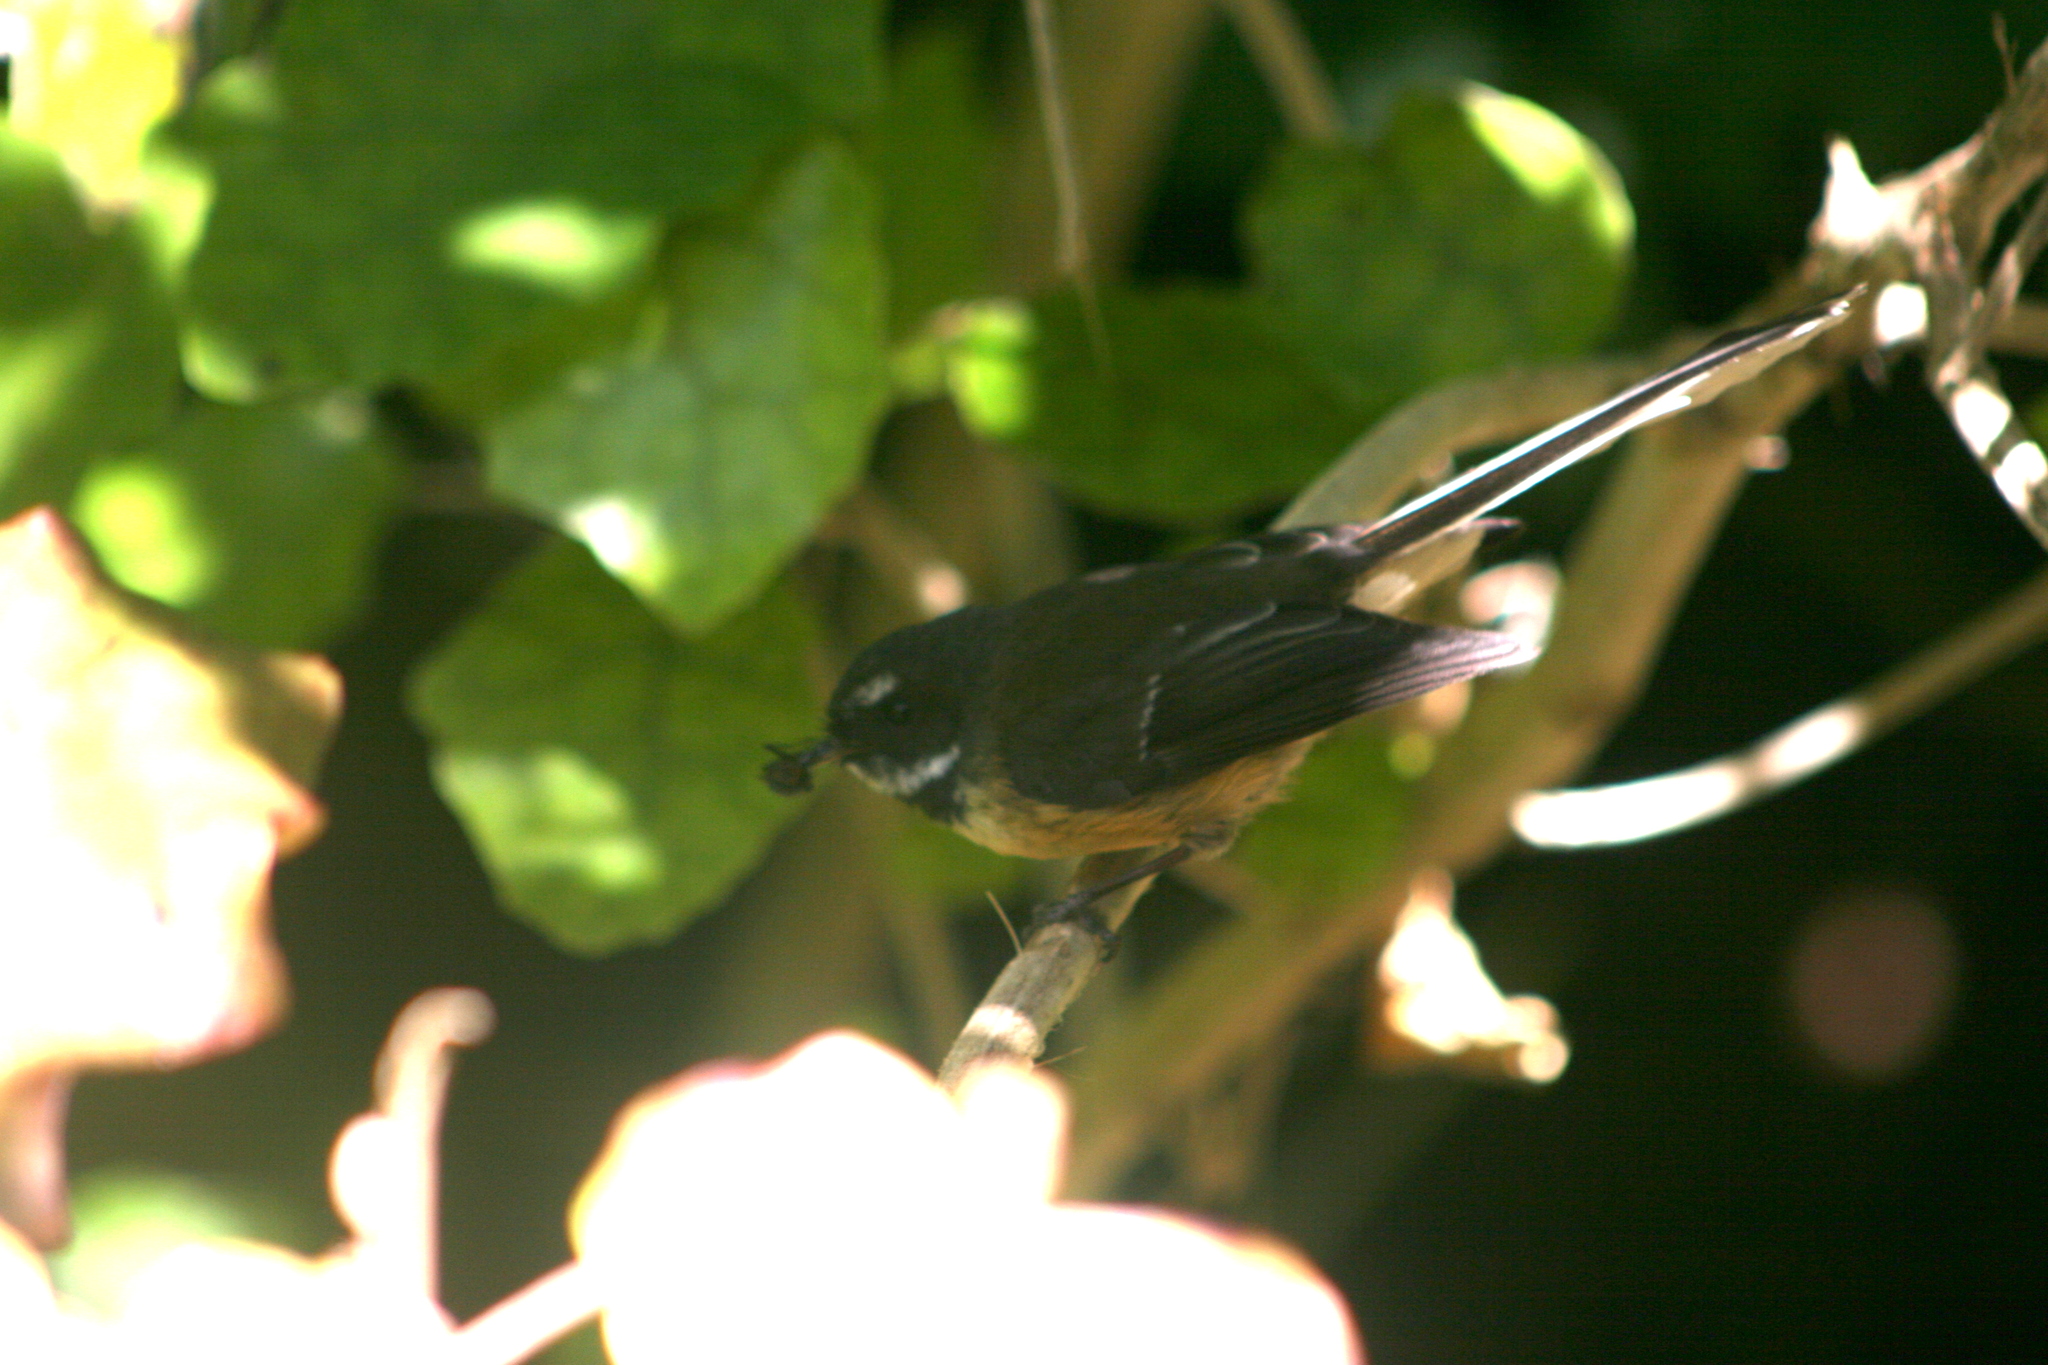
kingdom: Animalia
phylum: Chordata
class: Aves
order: Passeriformes
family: Rhipiduridae
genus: Rhipidura
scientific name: Rhipidura fuliginosa
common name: New zealand fantail
